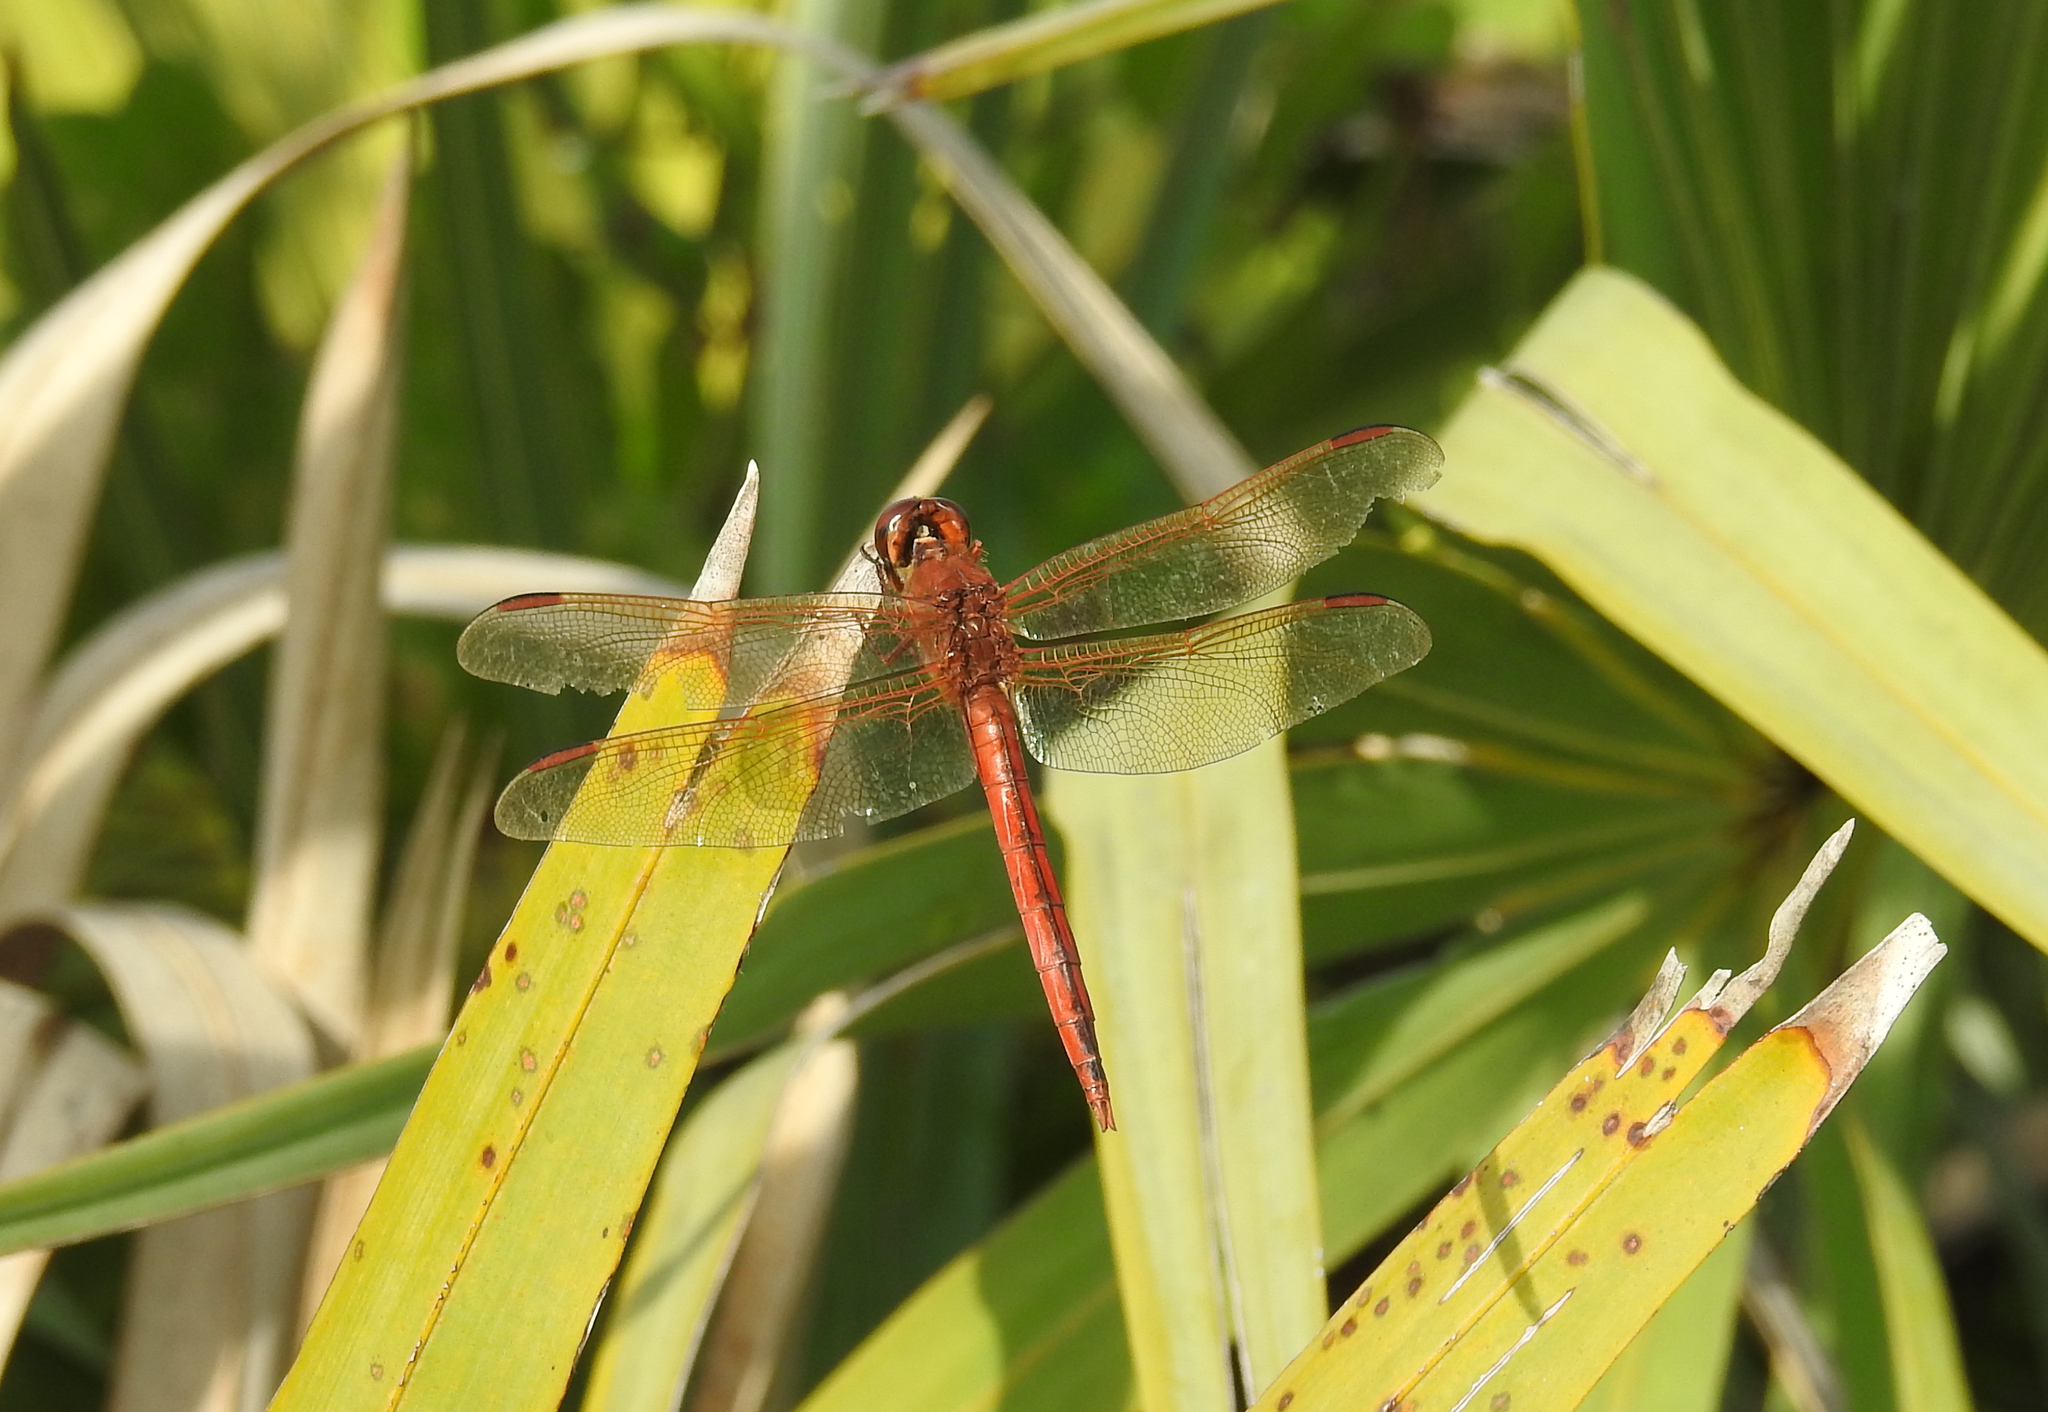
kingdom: Animalia
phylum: Arthropoda
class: Insecta
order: Odonata
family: Libellulidae
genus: Libellula
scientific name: Libellula needhami
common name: Needham's skimmer
